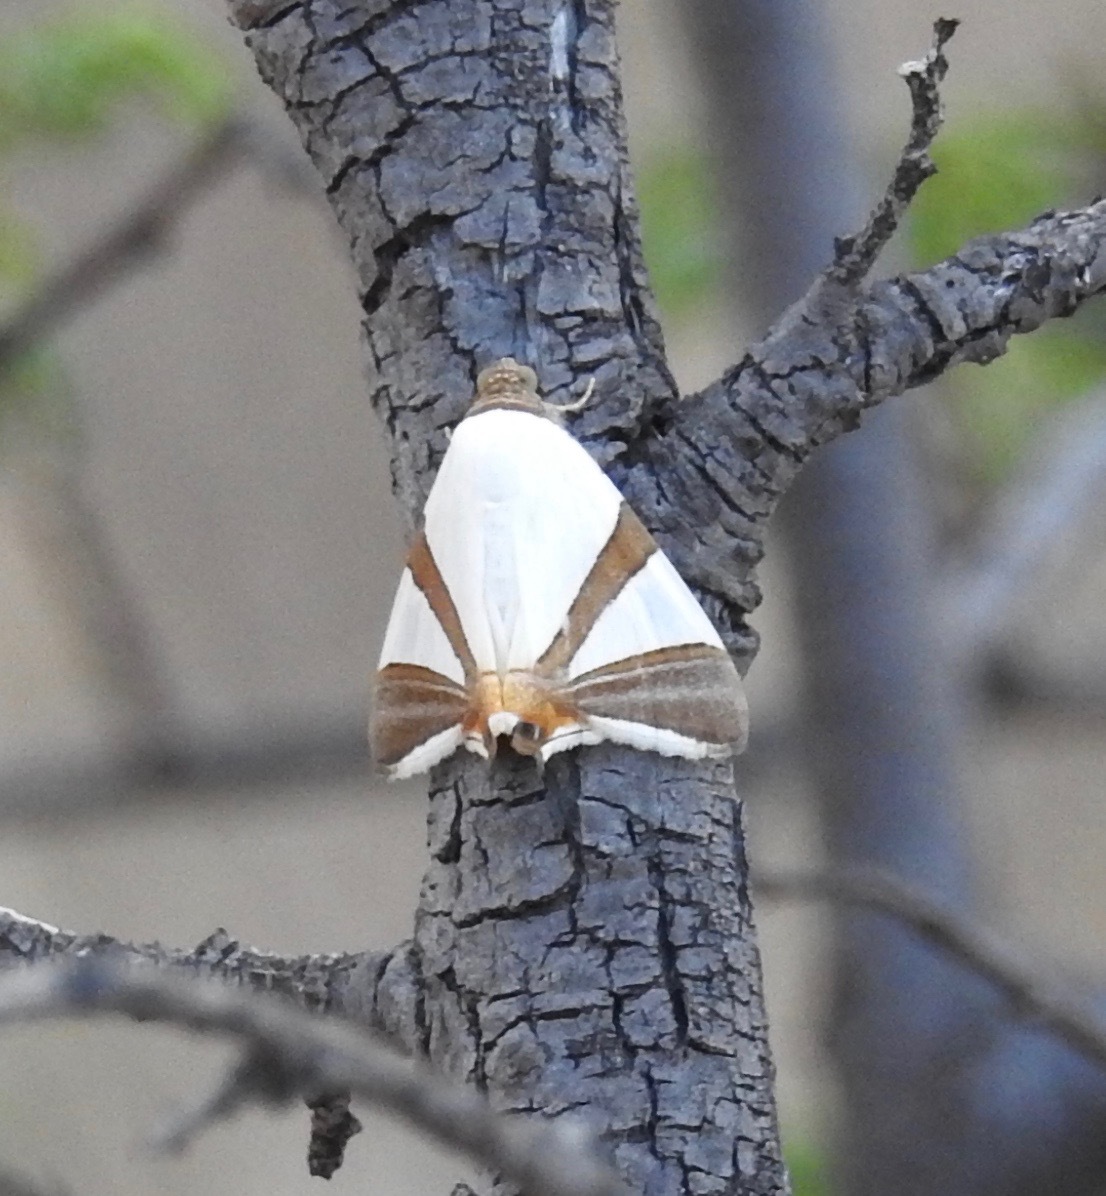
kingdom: Animalia
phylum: Arthropoda
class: Insecta
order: Lepidoptera
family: Erebidae
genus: Eulepidotis
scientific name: Eulepidotis rectimargo
